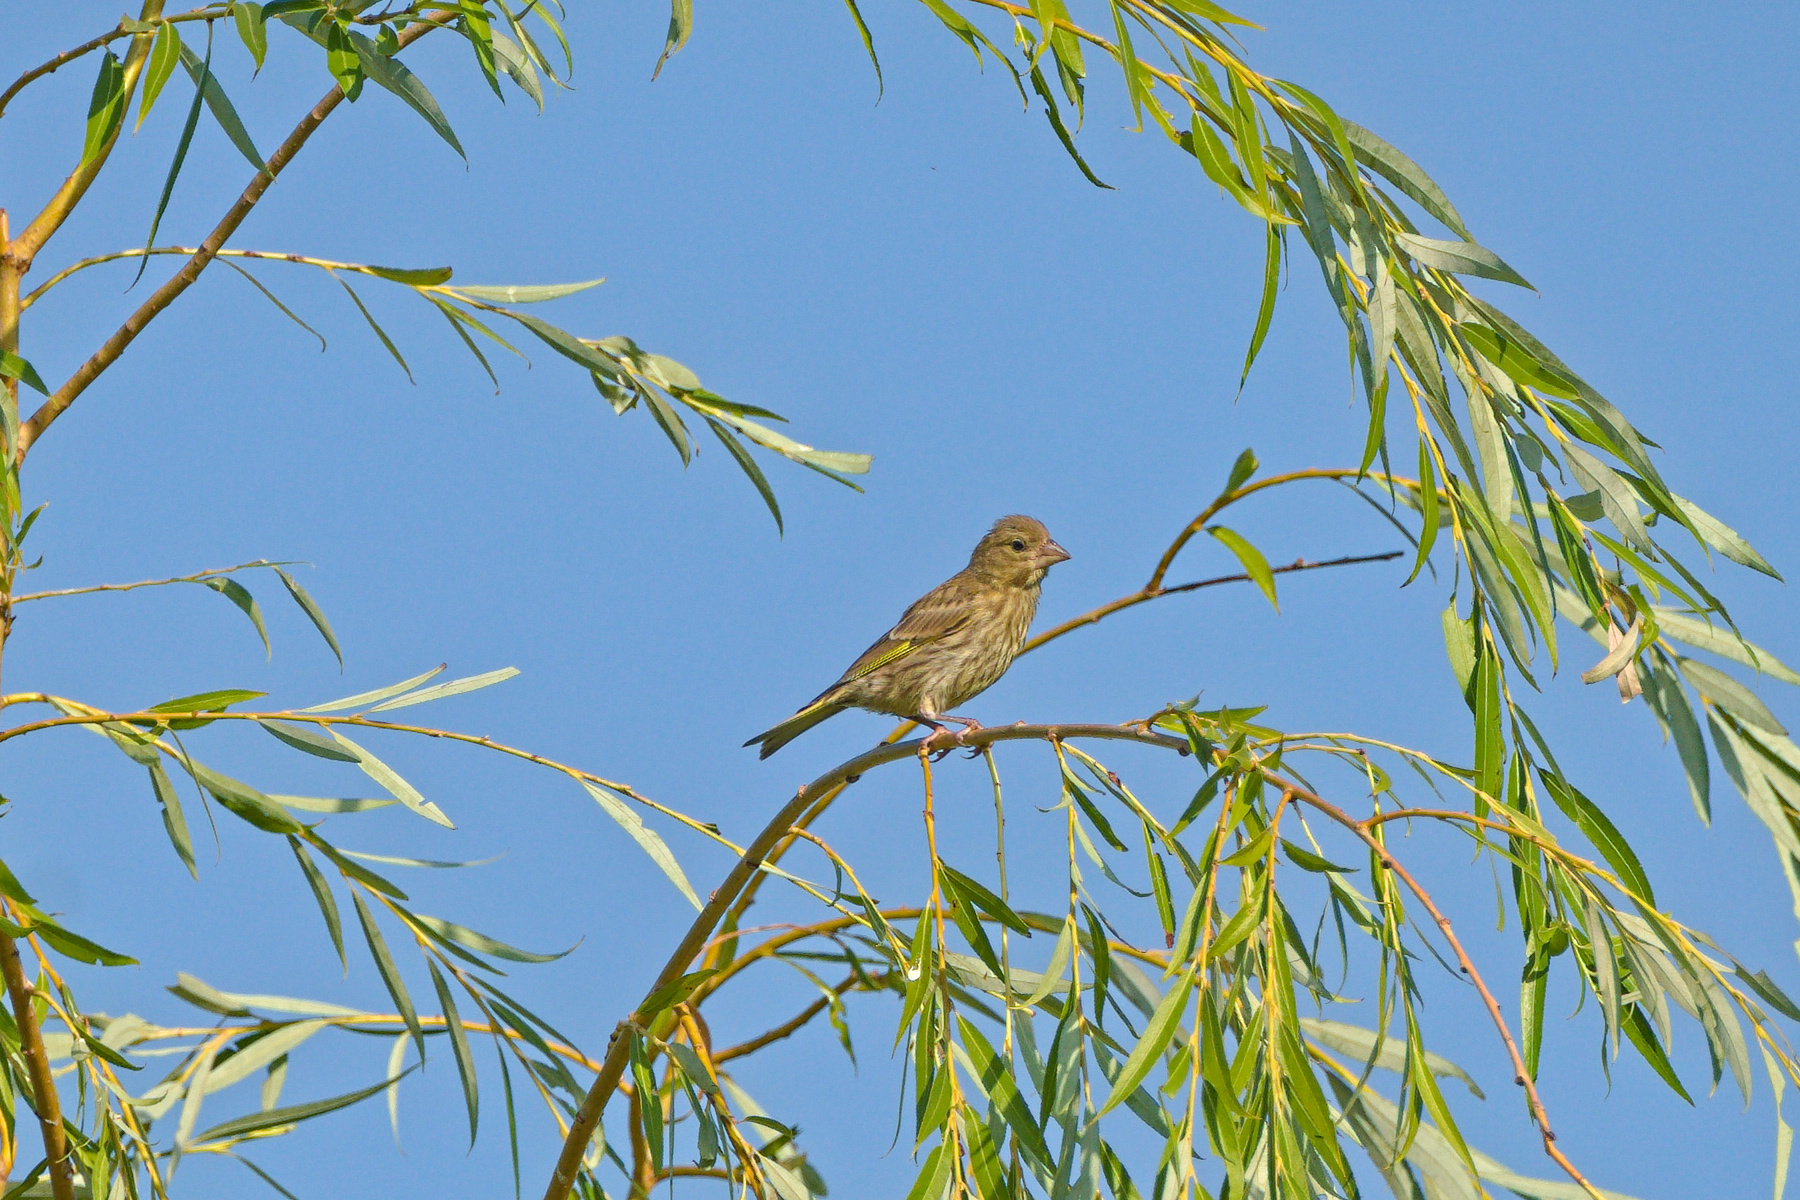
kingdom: Plantae
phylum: Tracheophyta
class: Liliopsida
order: Poales
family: Poaceae
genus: Chloris
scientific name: Chloris chloris
